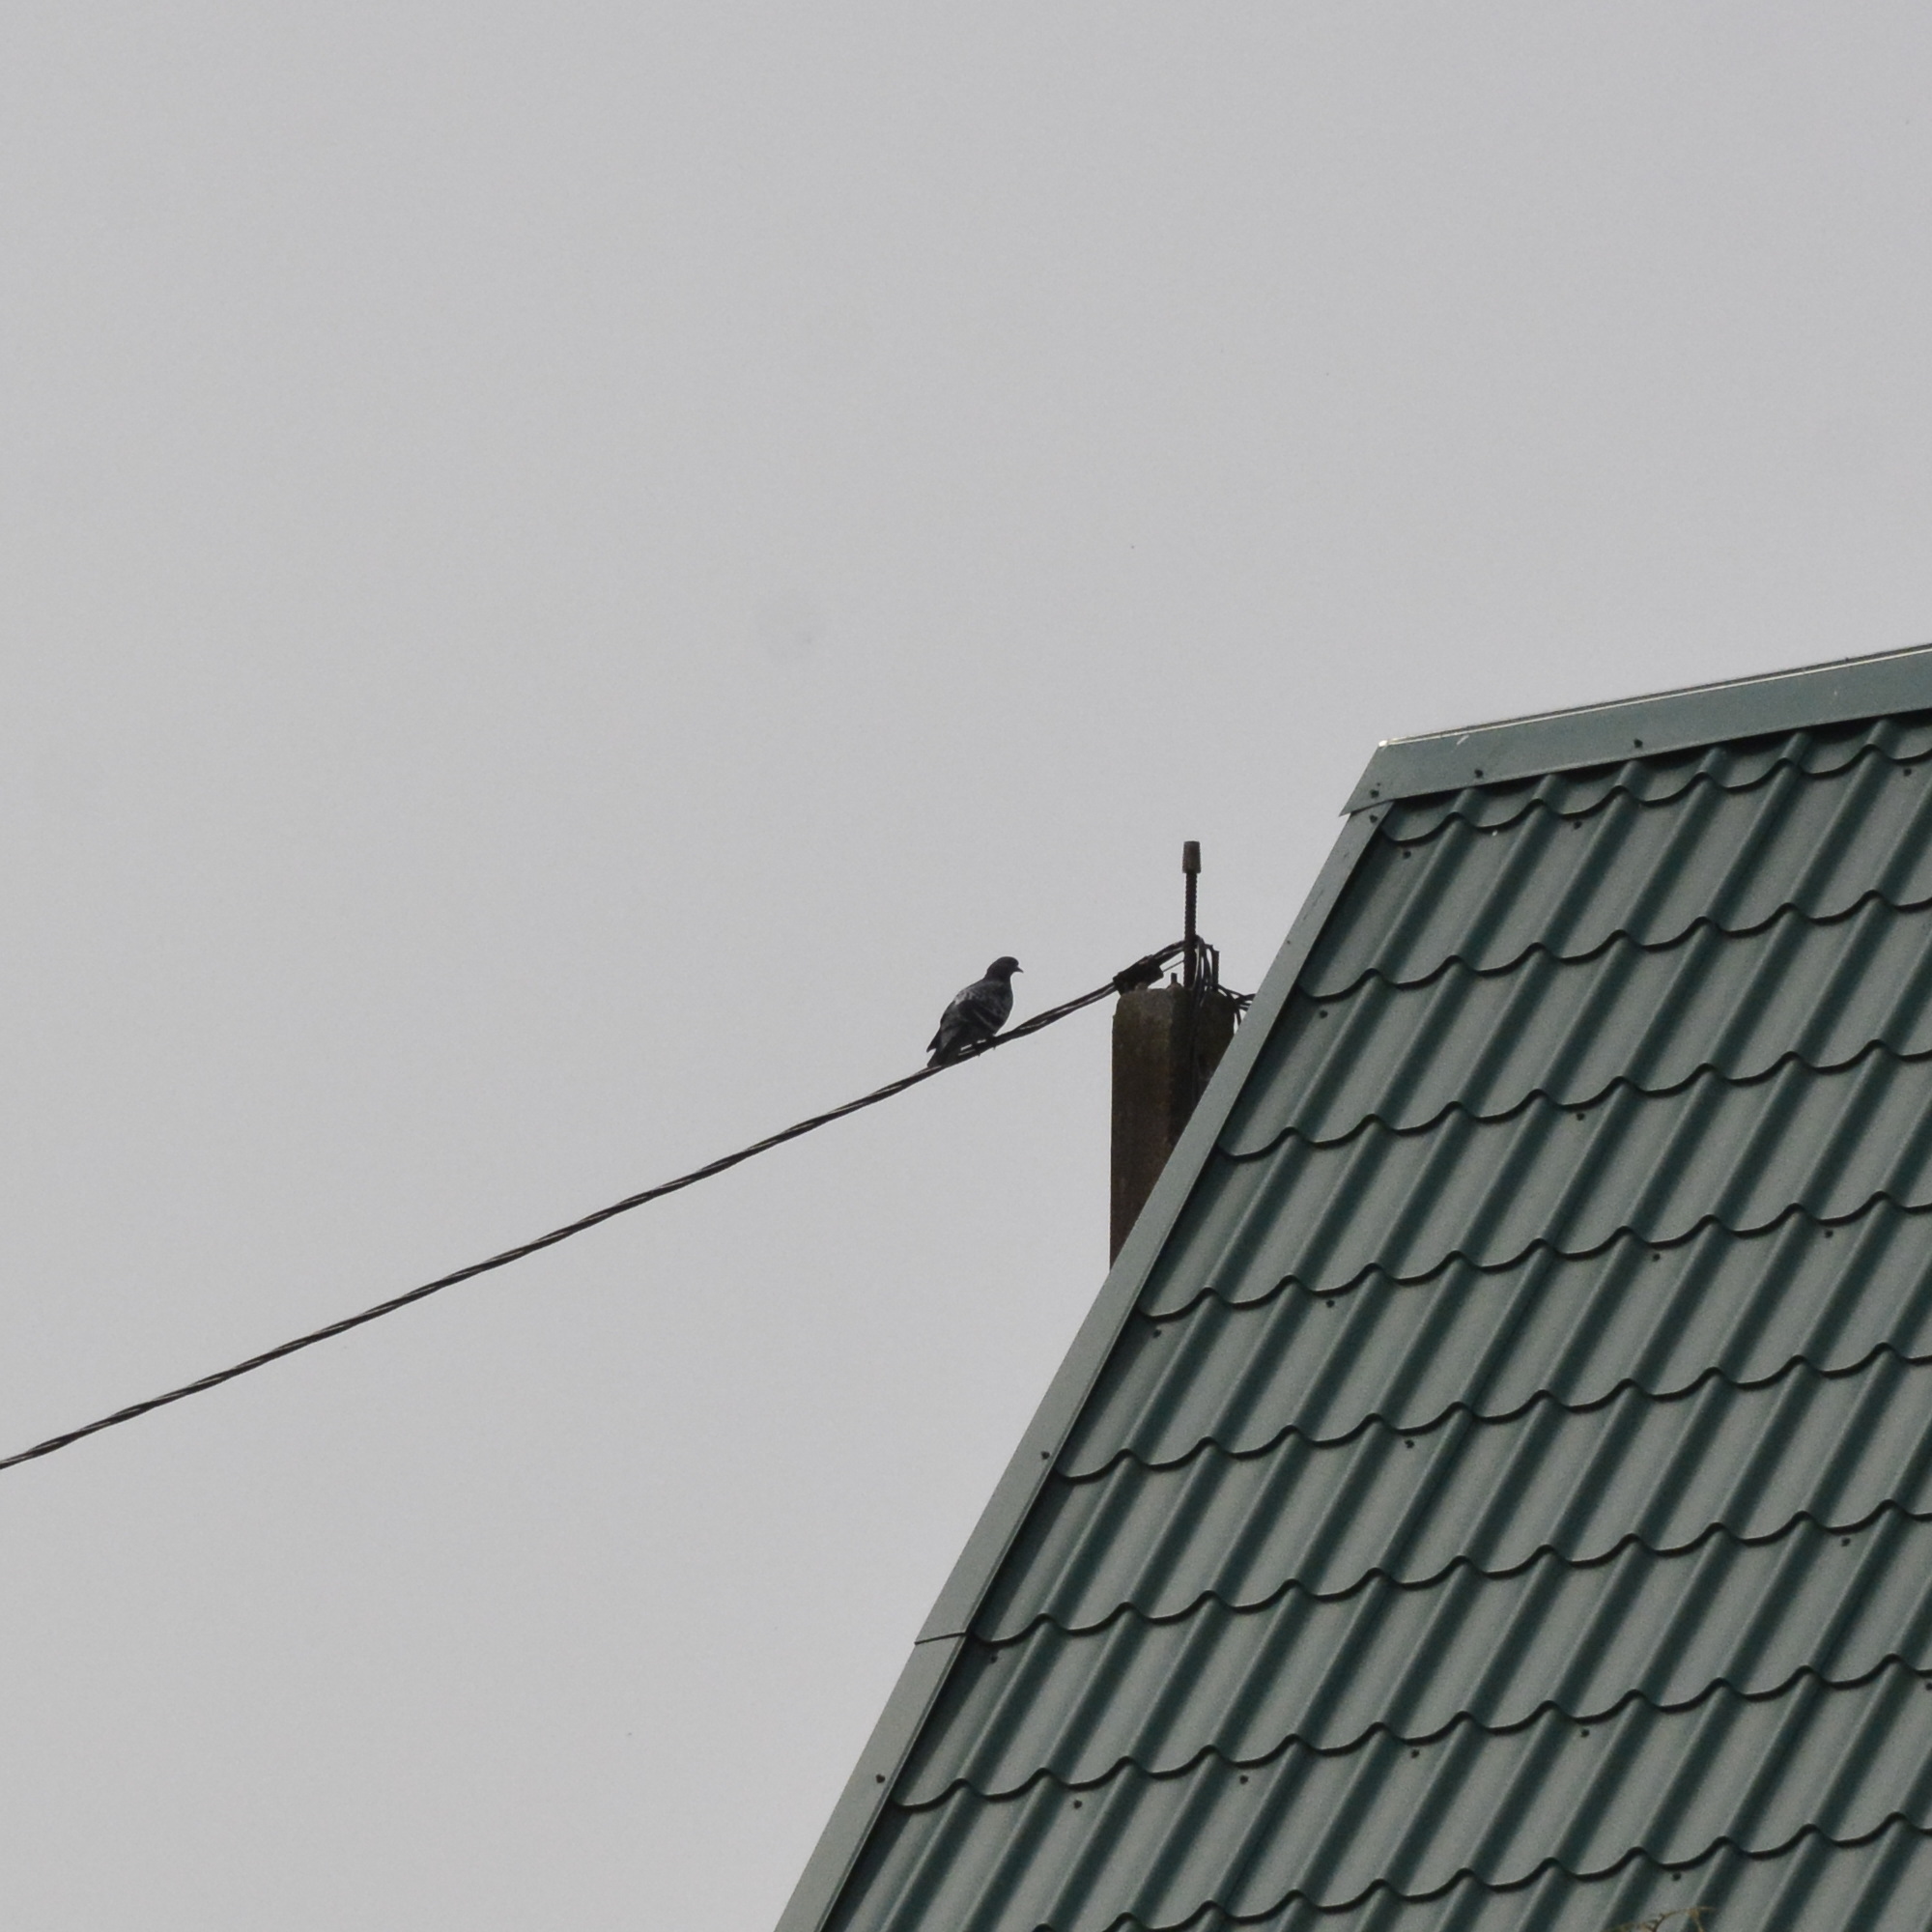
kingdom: Animalia
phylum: Chordata
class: Aves
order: Columbiformes
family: Columbidae
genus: Columba
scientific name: Columba livia
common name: Rock pigeon
